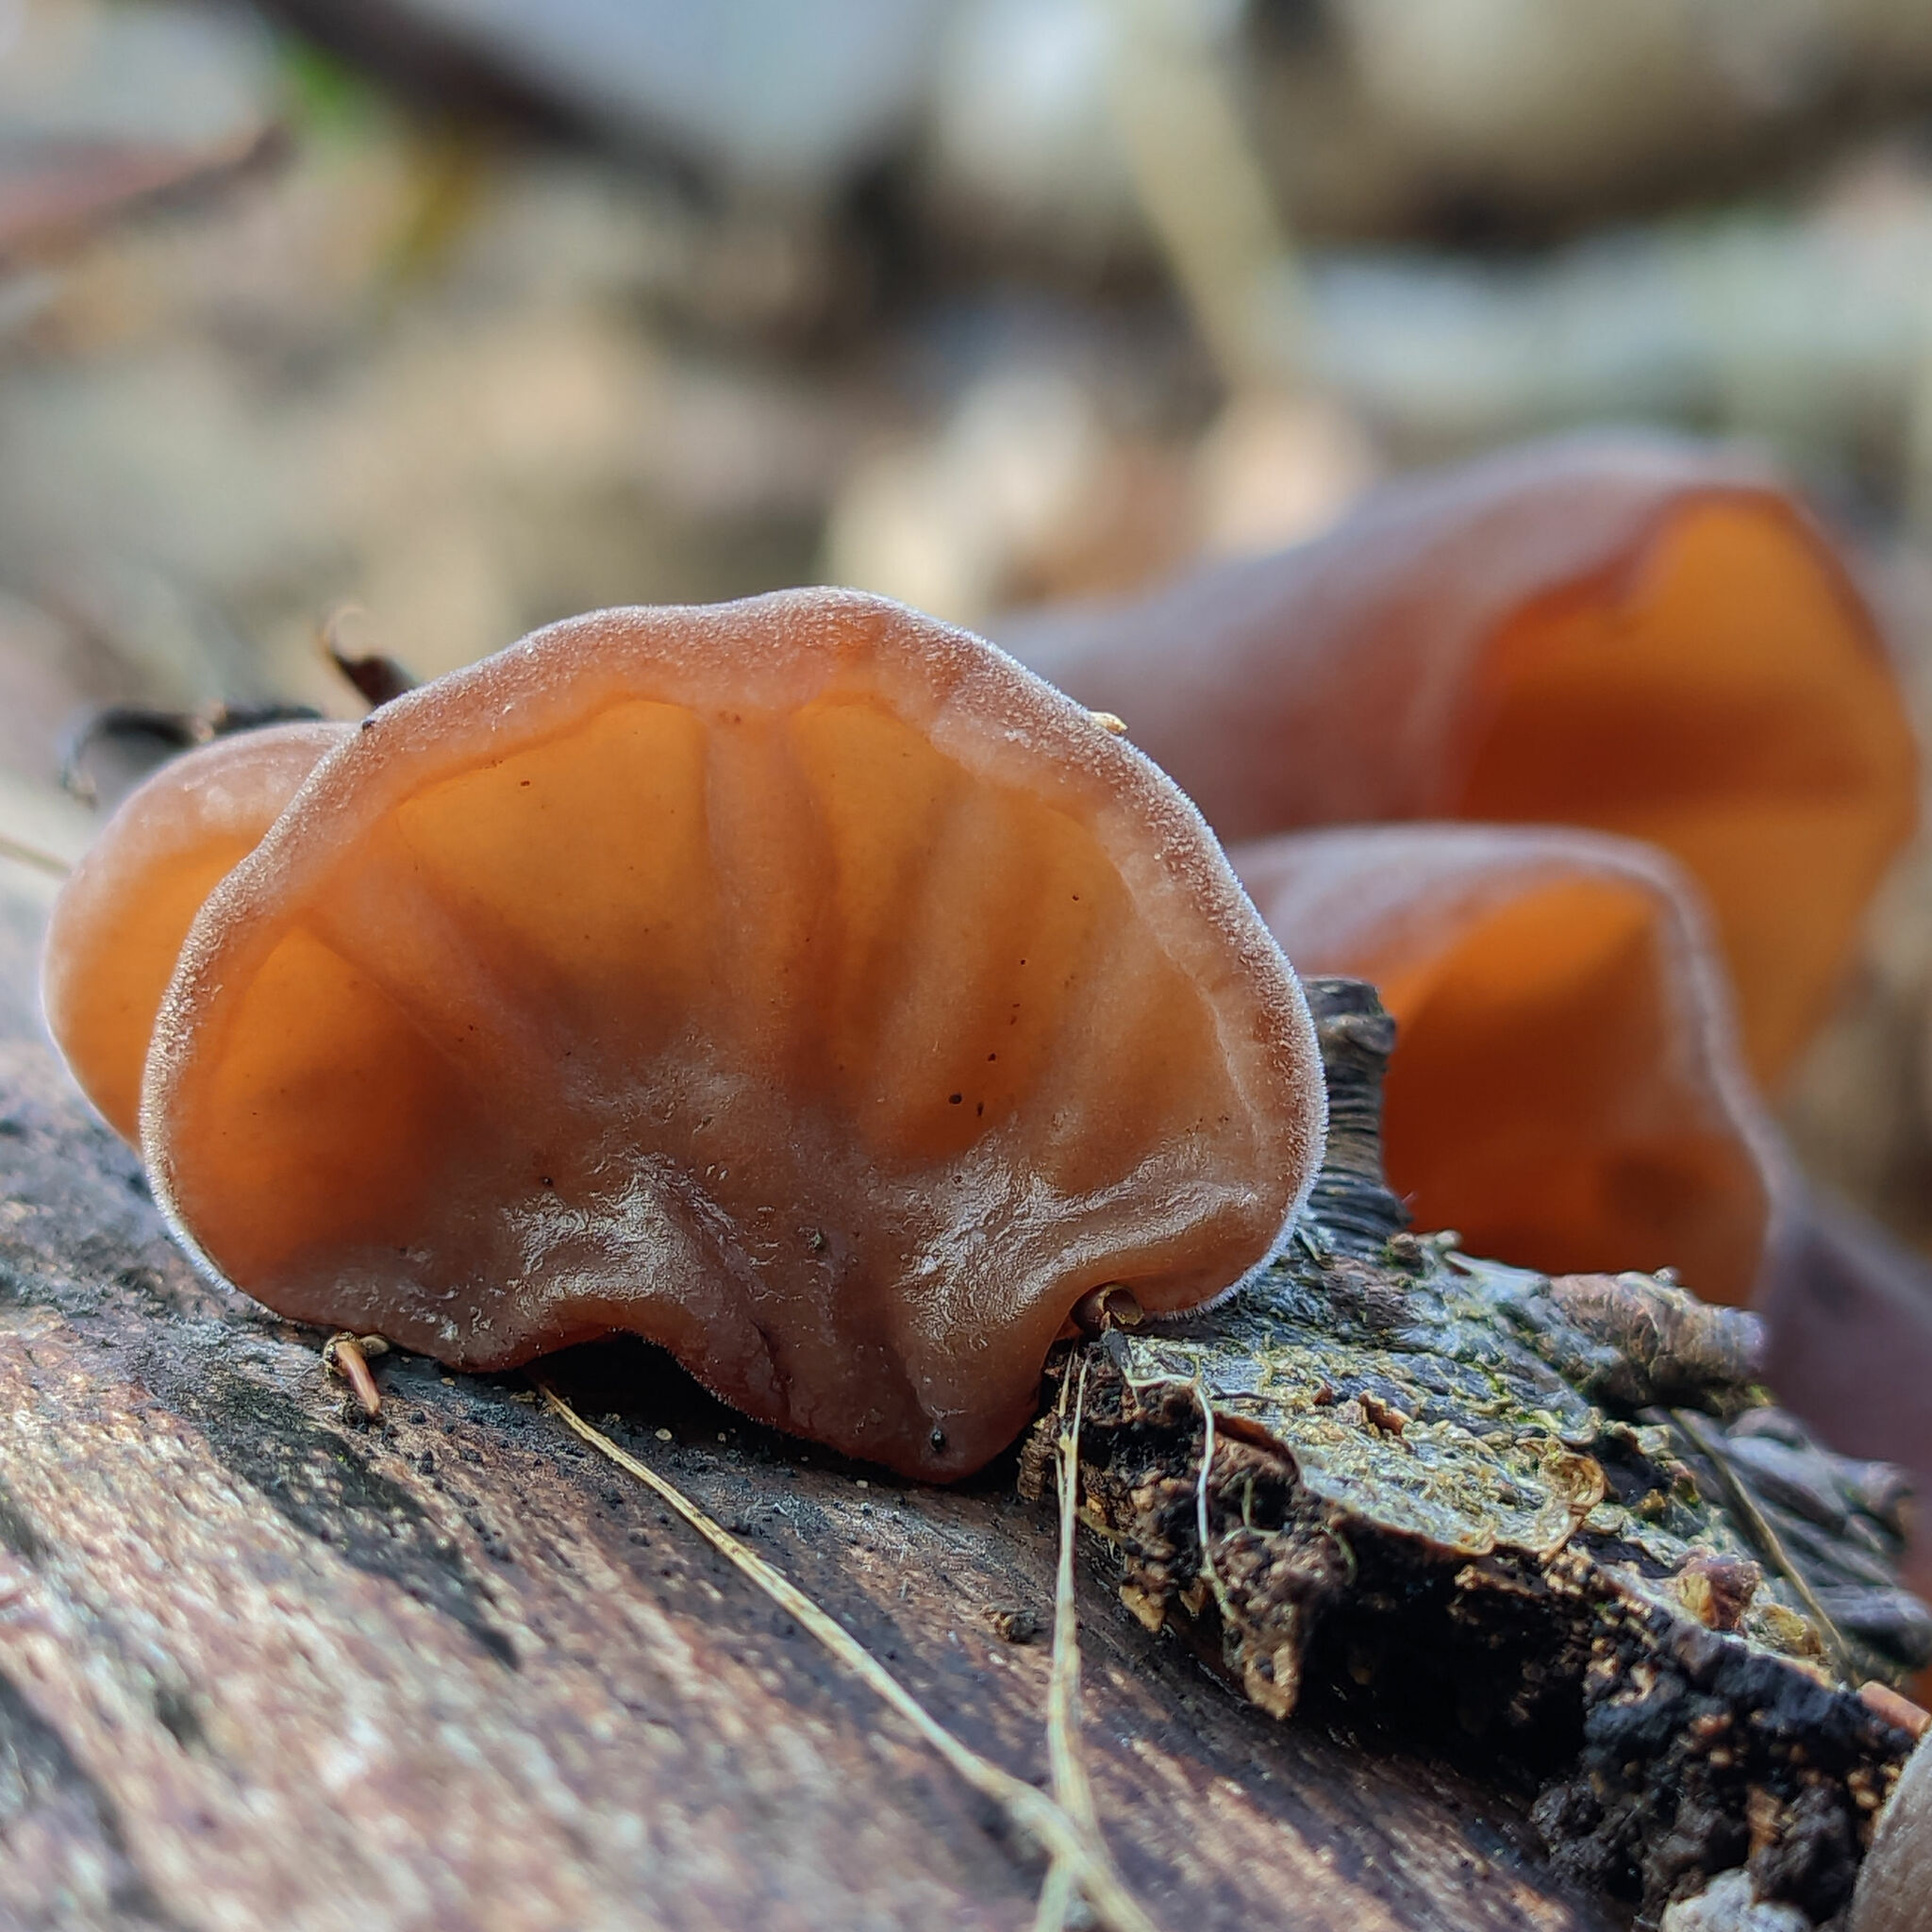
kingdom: Fungi
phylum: Basidiomycota
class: Agaricomycetes
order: Auriculariales
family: Auriculariaceae
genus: Auricularia
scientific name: Auricularia auricula-judae
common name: Jelly ear
